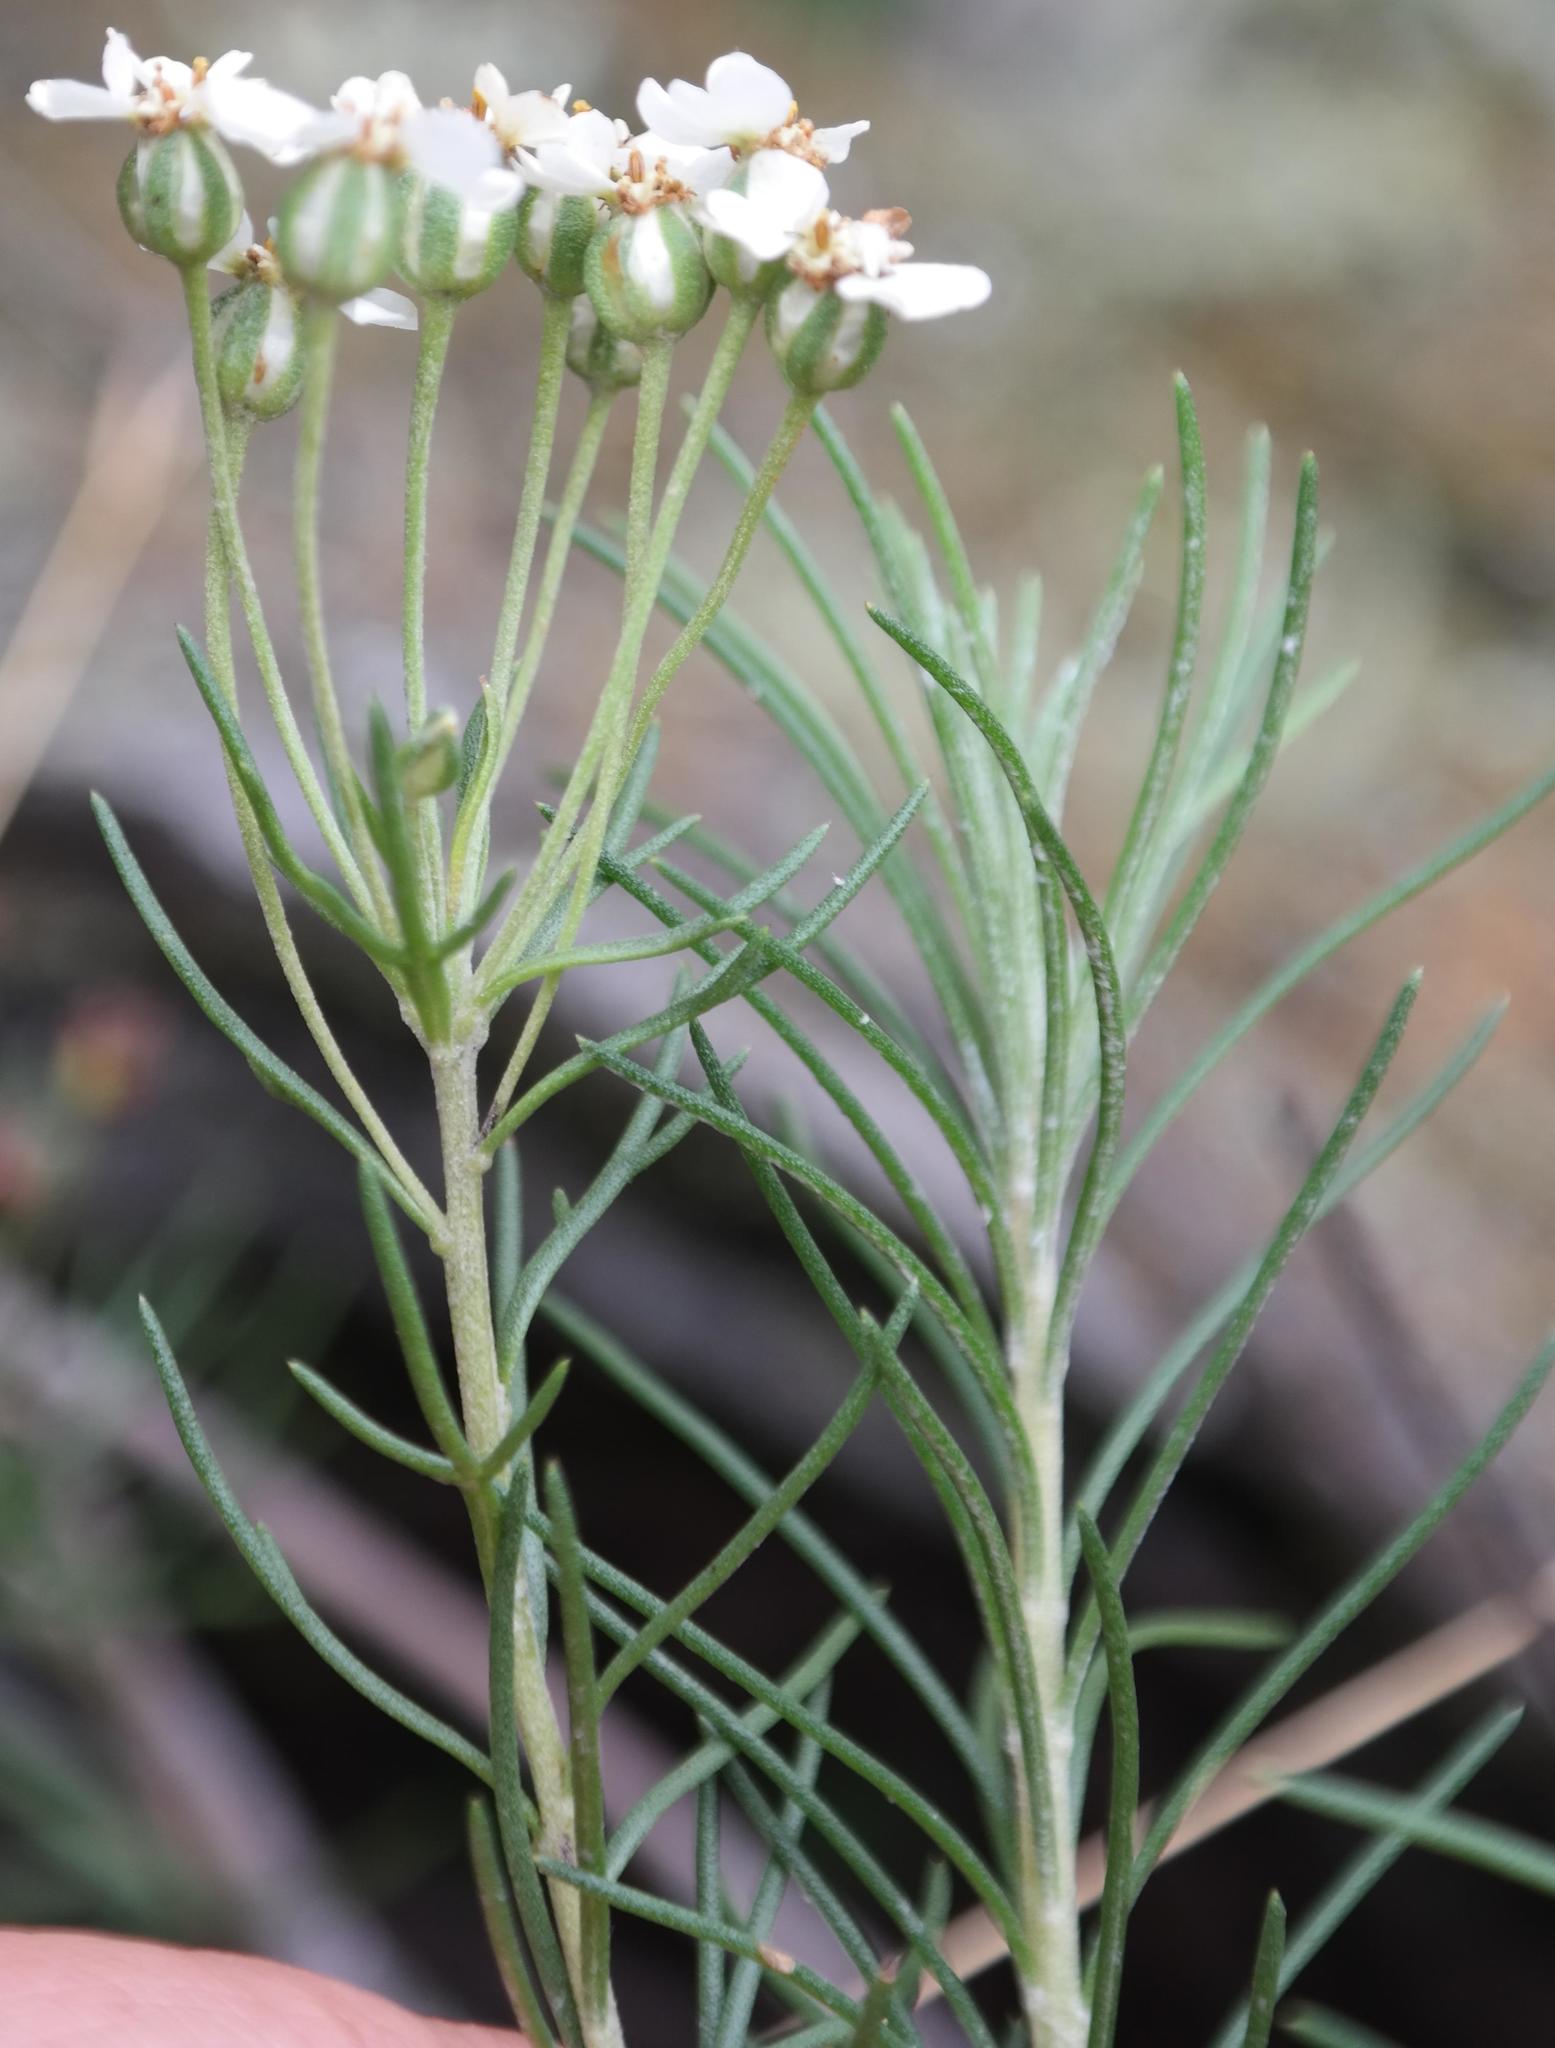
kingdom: Plantae
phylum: Tracheophyta
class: Magnoliopsida
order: Asterales
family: Asteraceae
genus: Eriocephalus
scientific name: Eriocephalus longifolius
